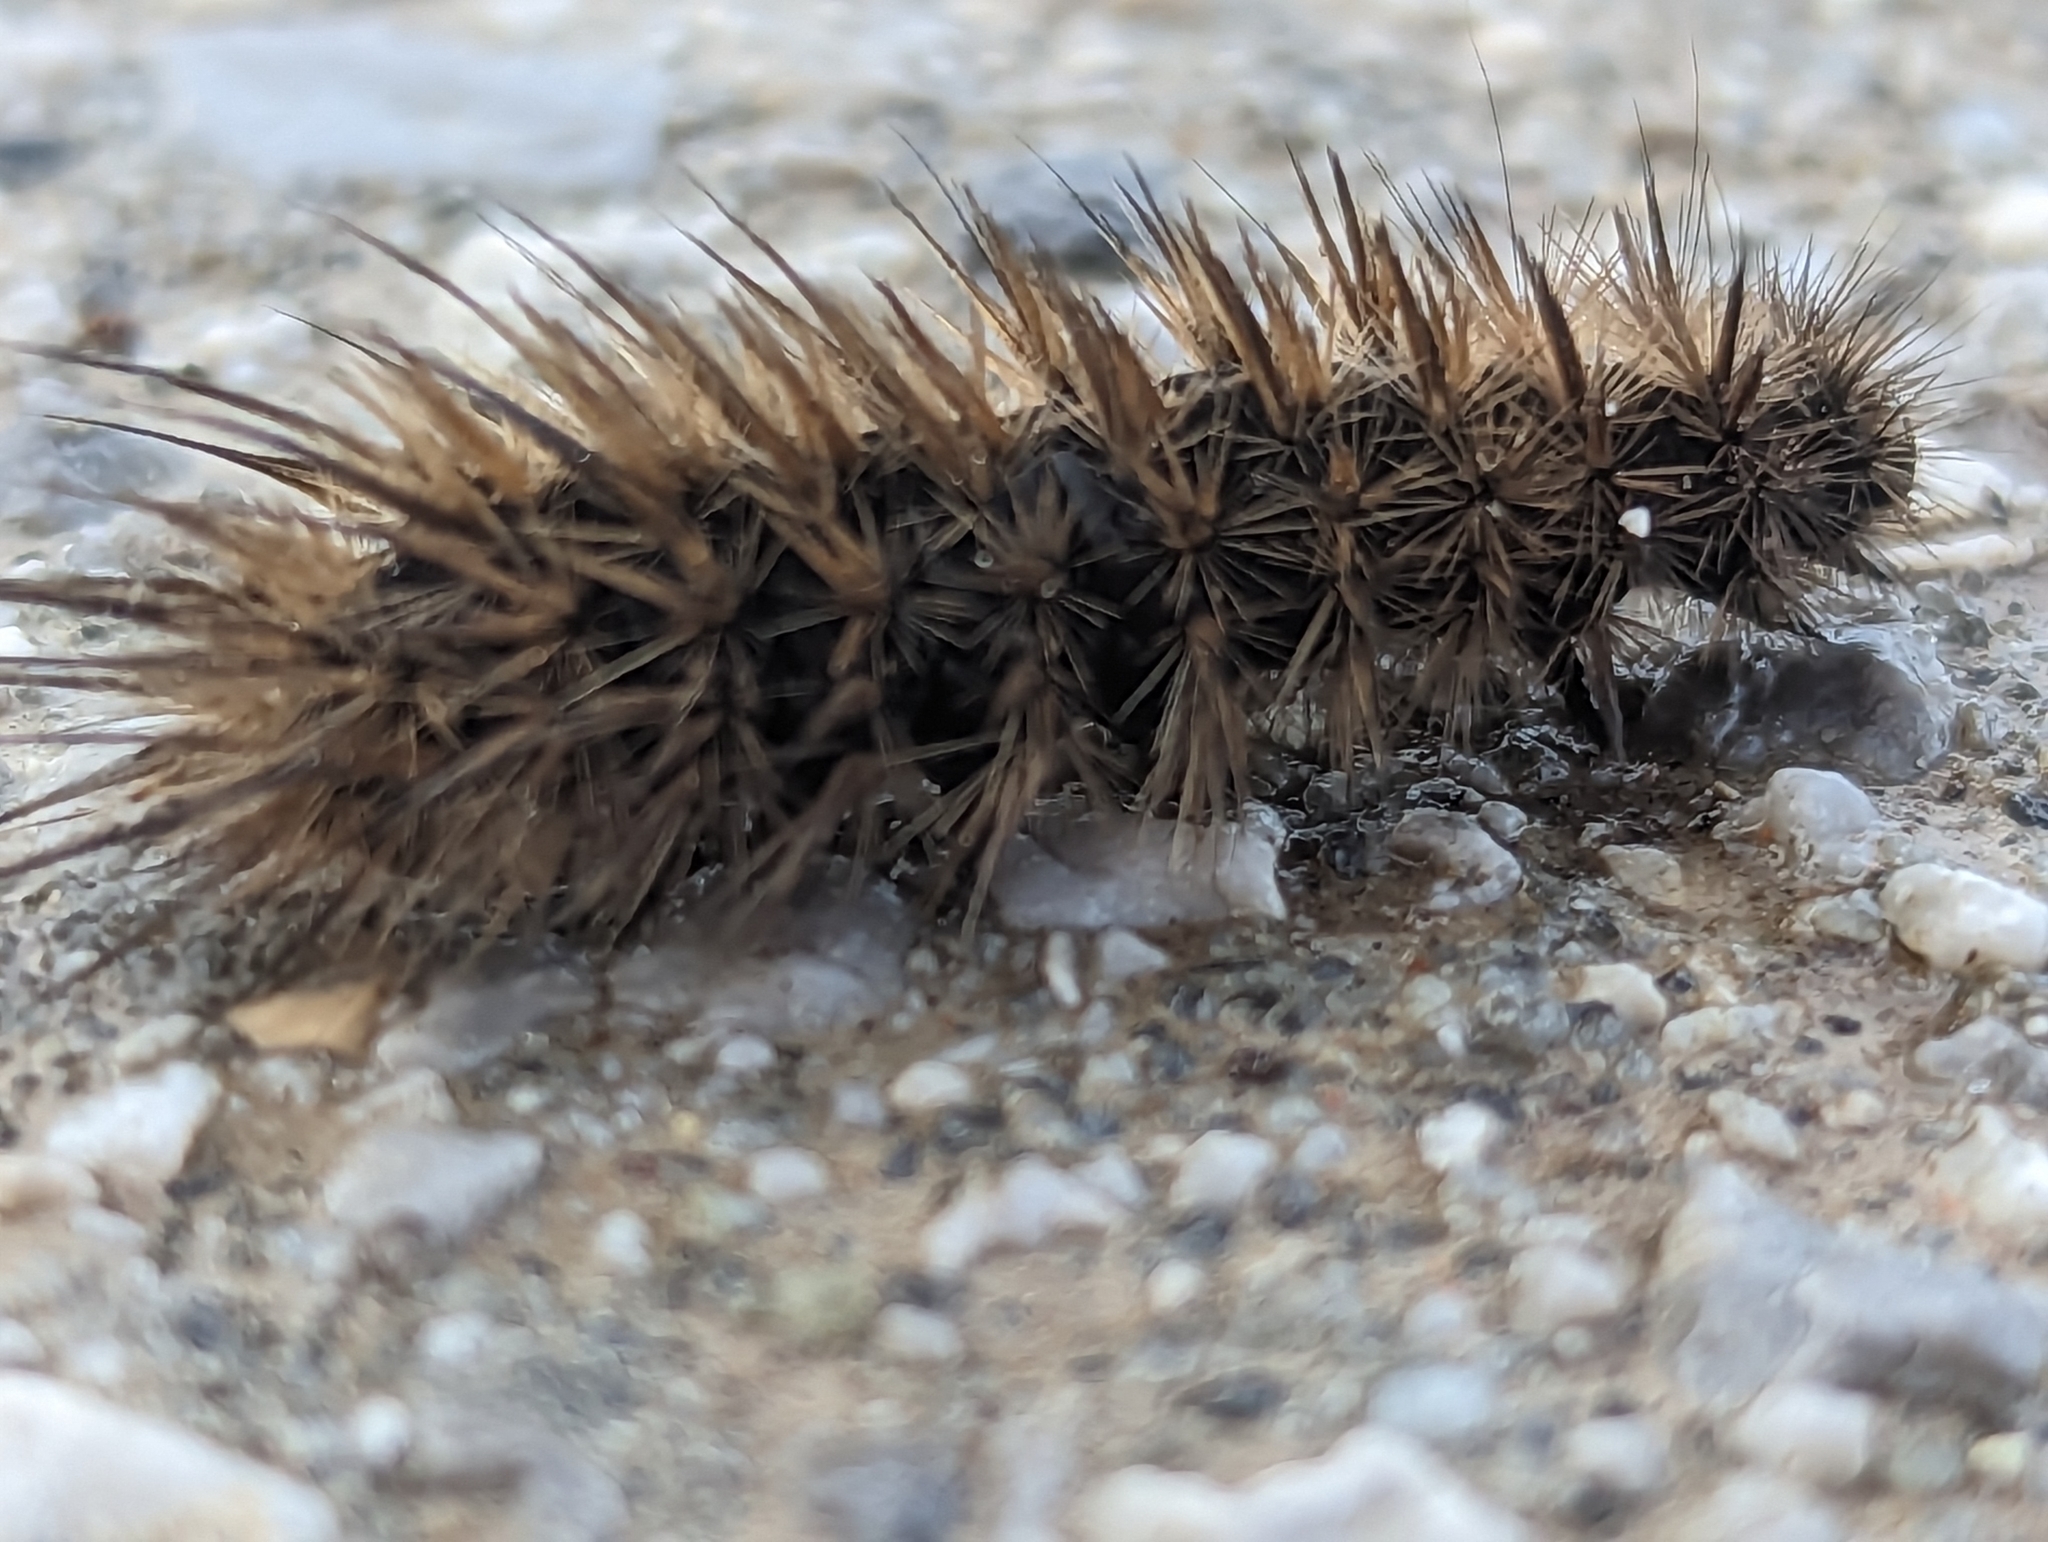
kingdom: Animalia
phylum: Arthropoda
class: Insecta
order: Lepidoptera
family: Erebidae
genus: Phragmatobia
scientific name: Phragmatobia fuliginosa
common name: Ruby tiger
